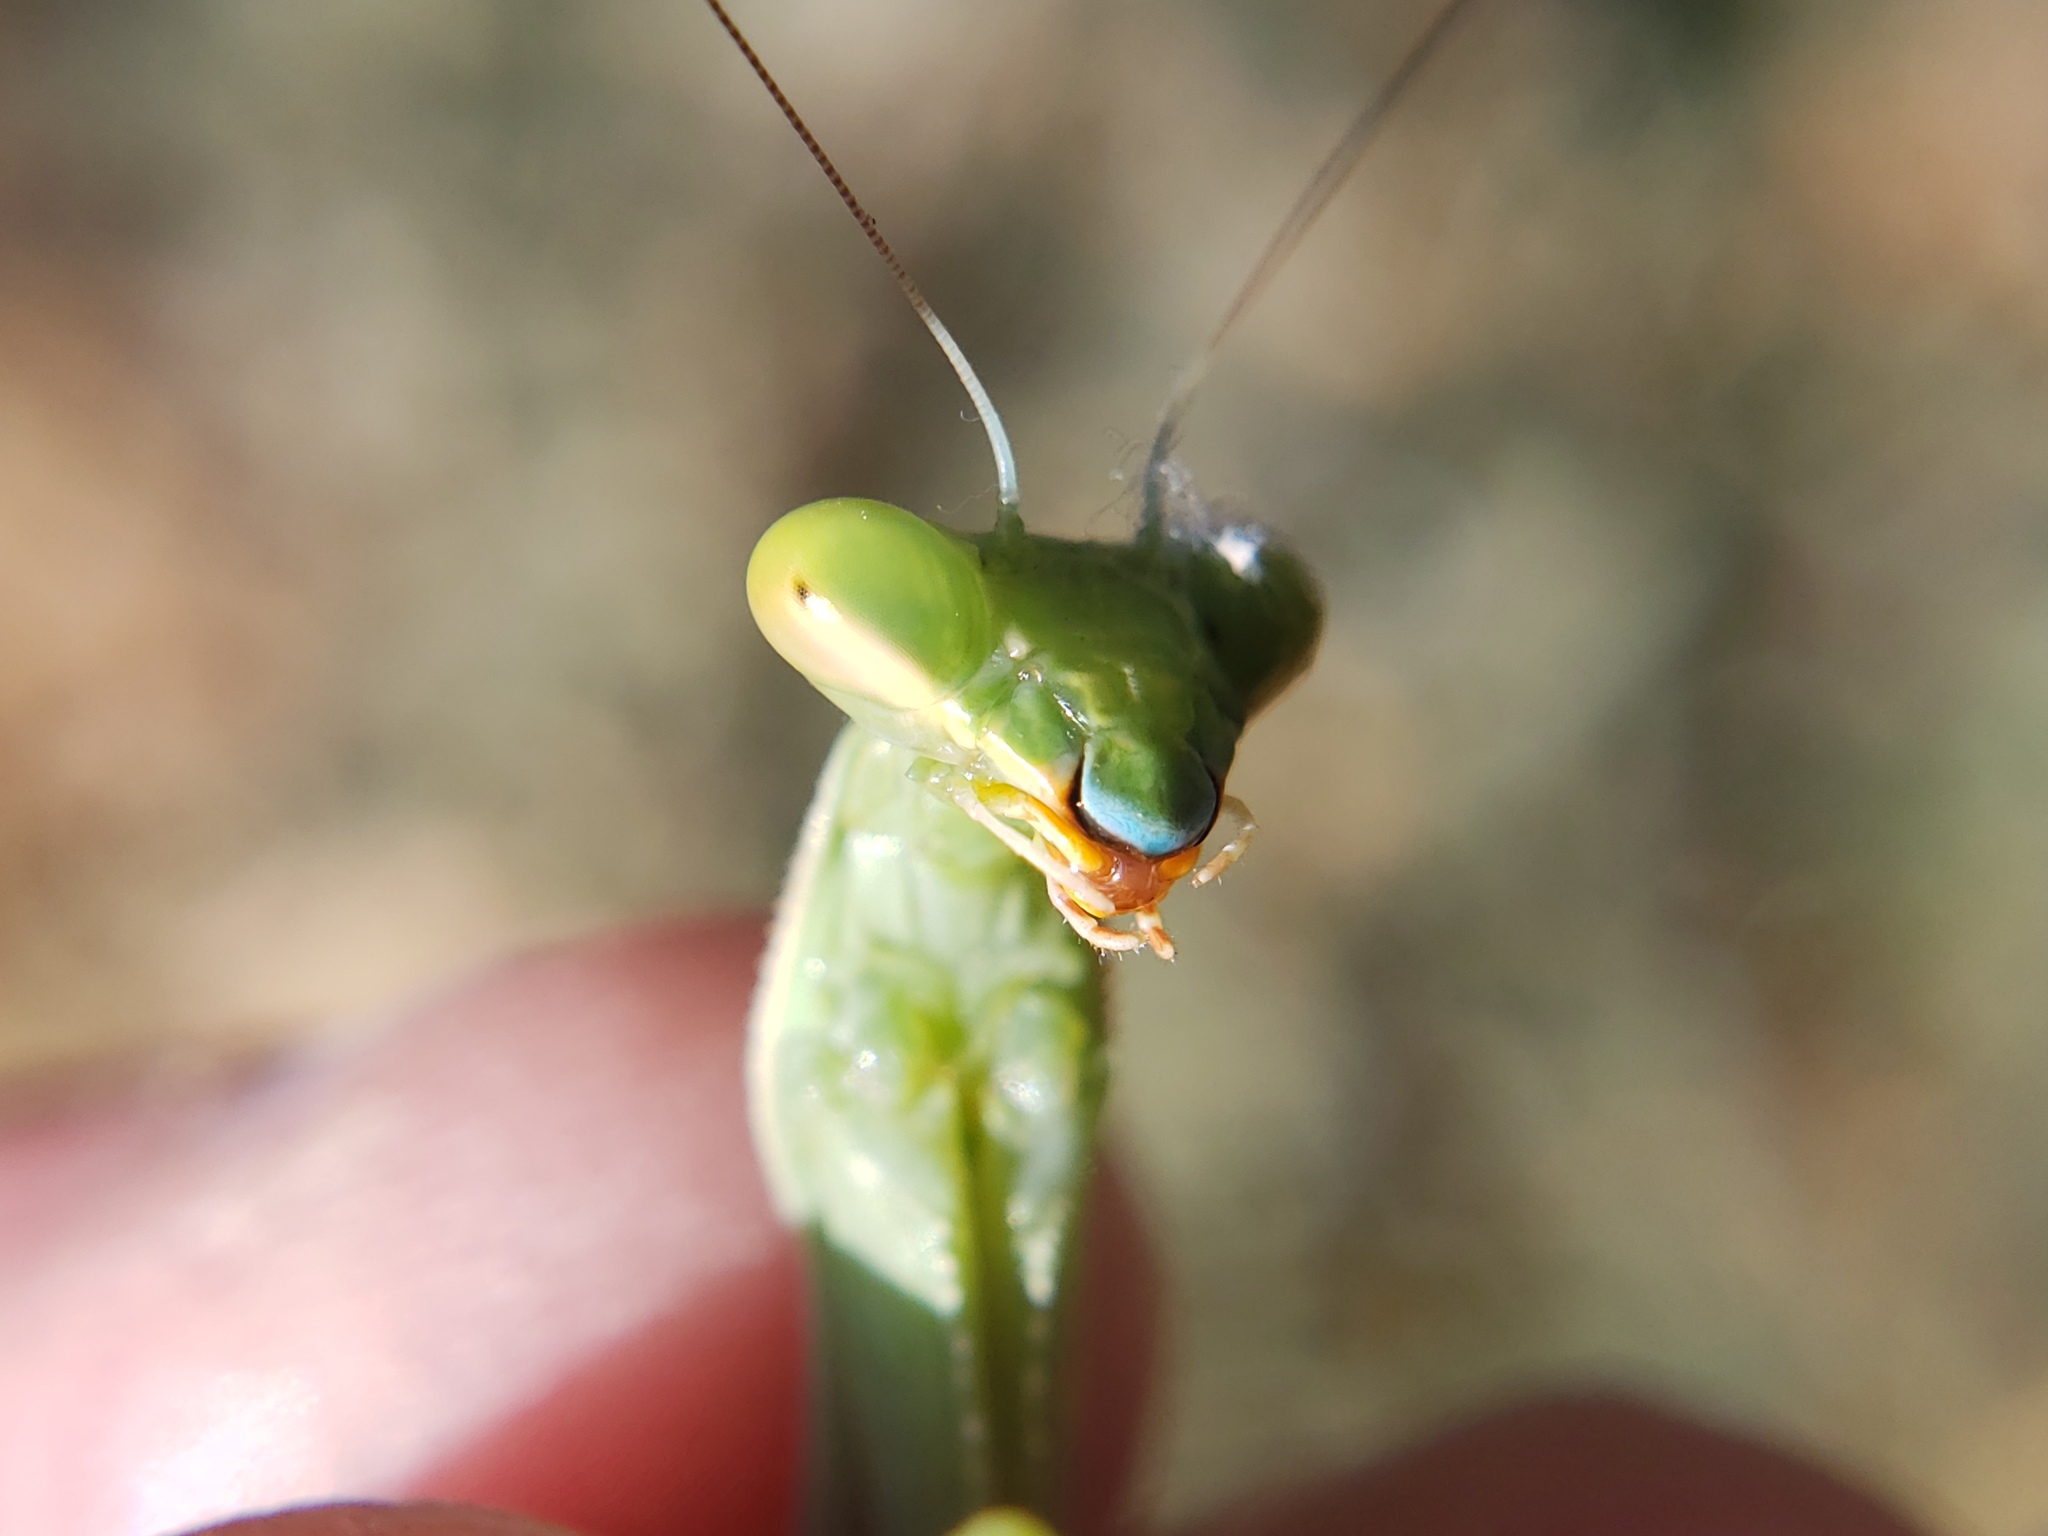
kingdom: Animalia
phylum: Arthropoda
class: Insecta
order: Mantodea
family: Mantidae
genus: Stagmomantis
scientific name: Stagmomantis limbata
